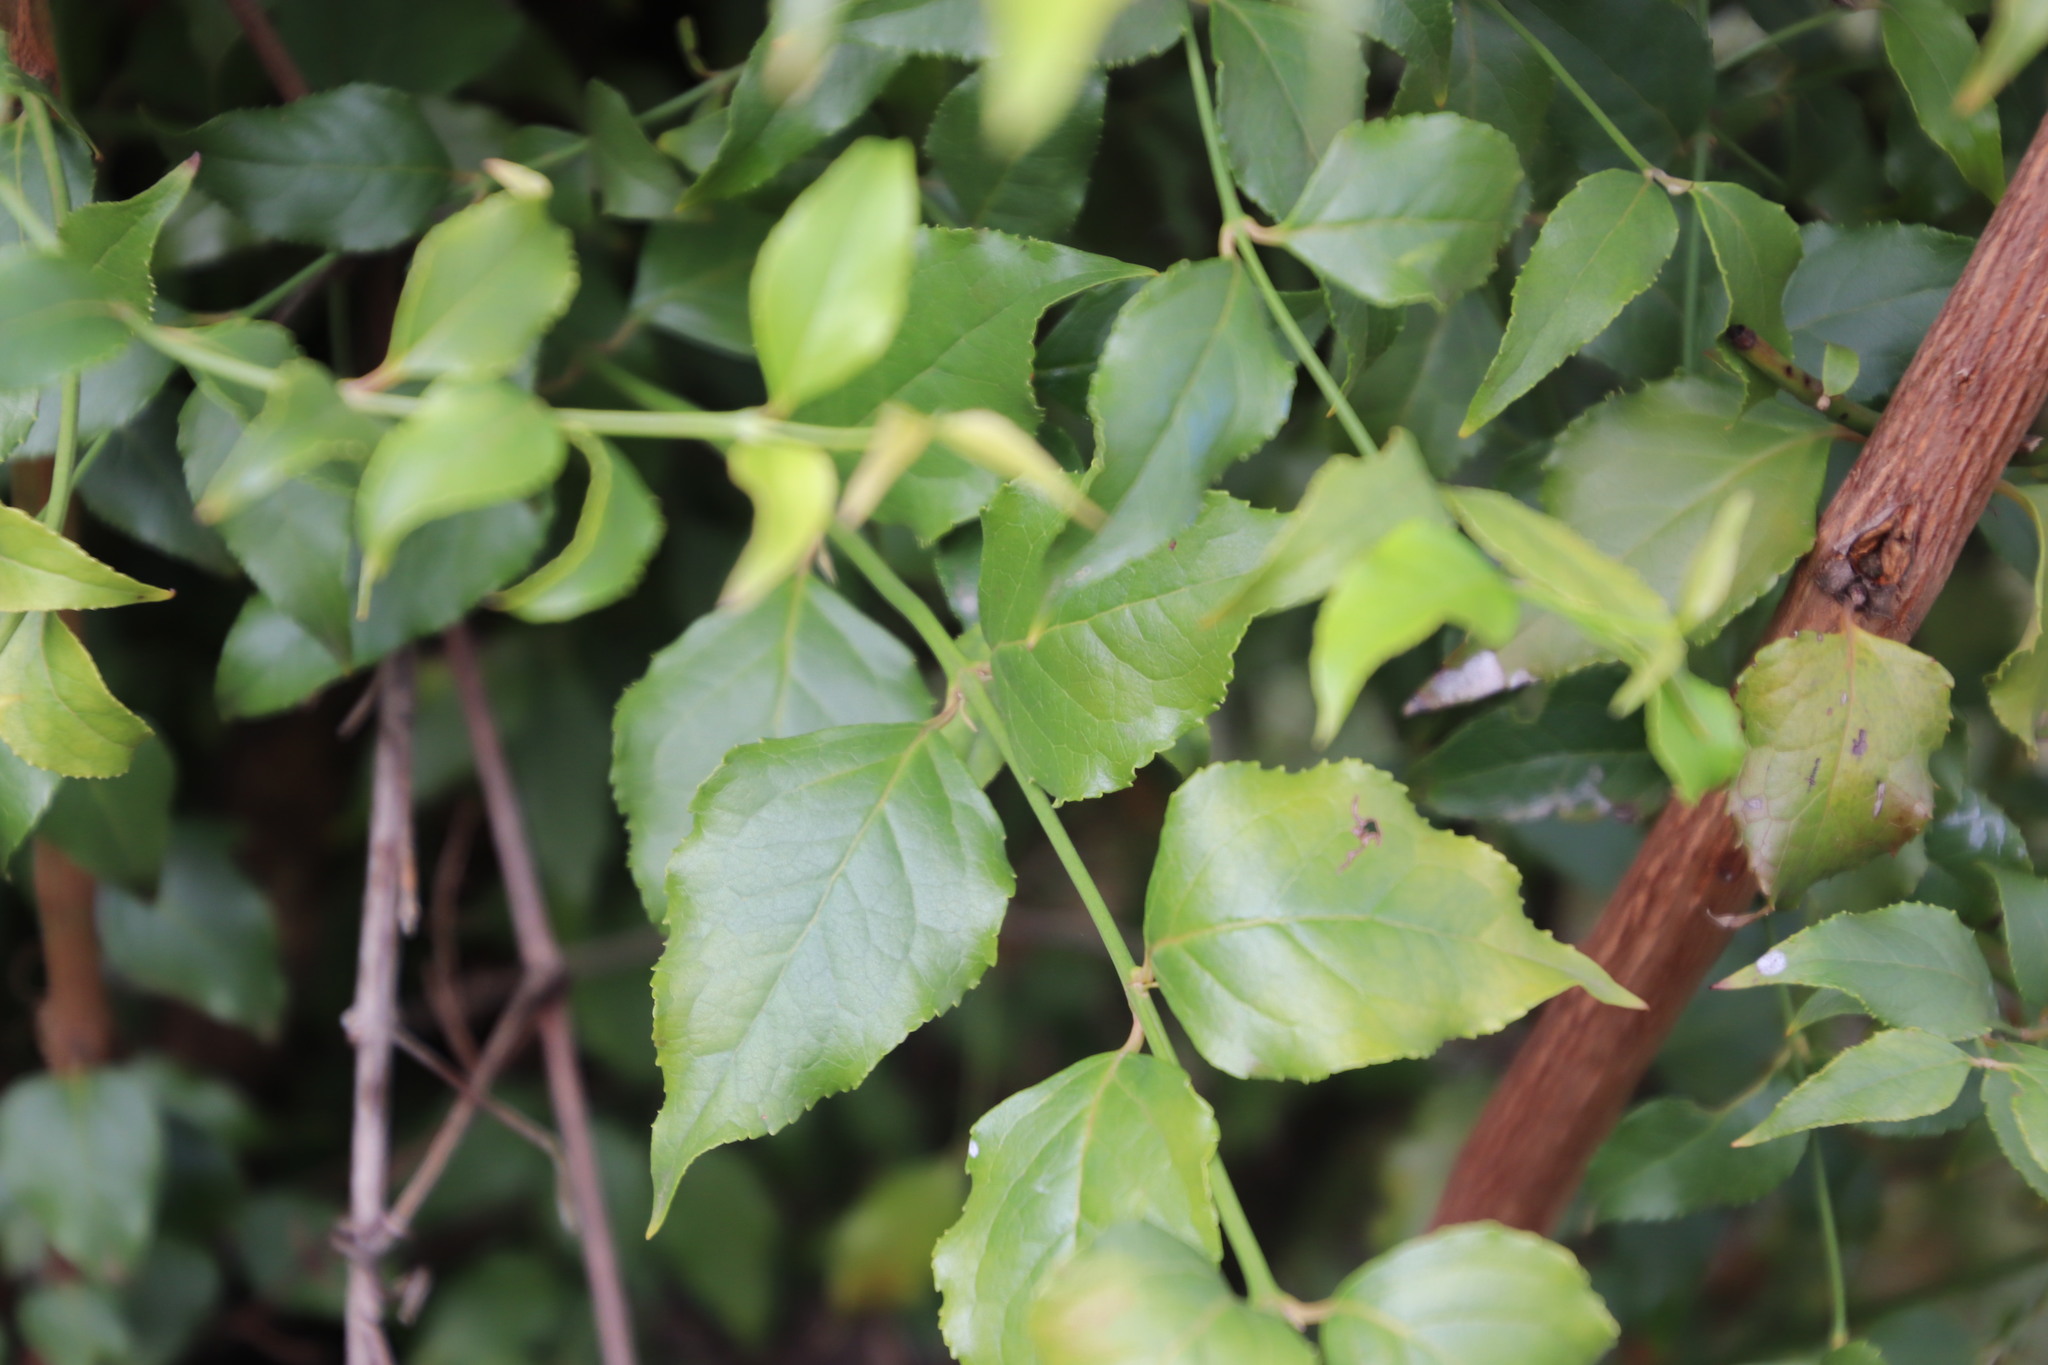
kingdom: Plantae
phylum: Tracheophyta
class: Magnoliopsida
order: Lamiales
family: Stilbaceae
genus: Halleria
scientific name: Halleria lucida
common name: Tree fuschia
